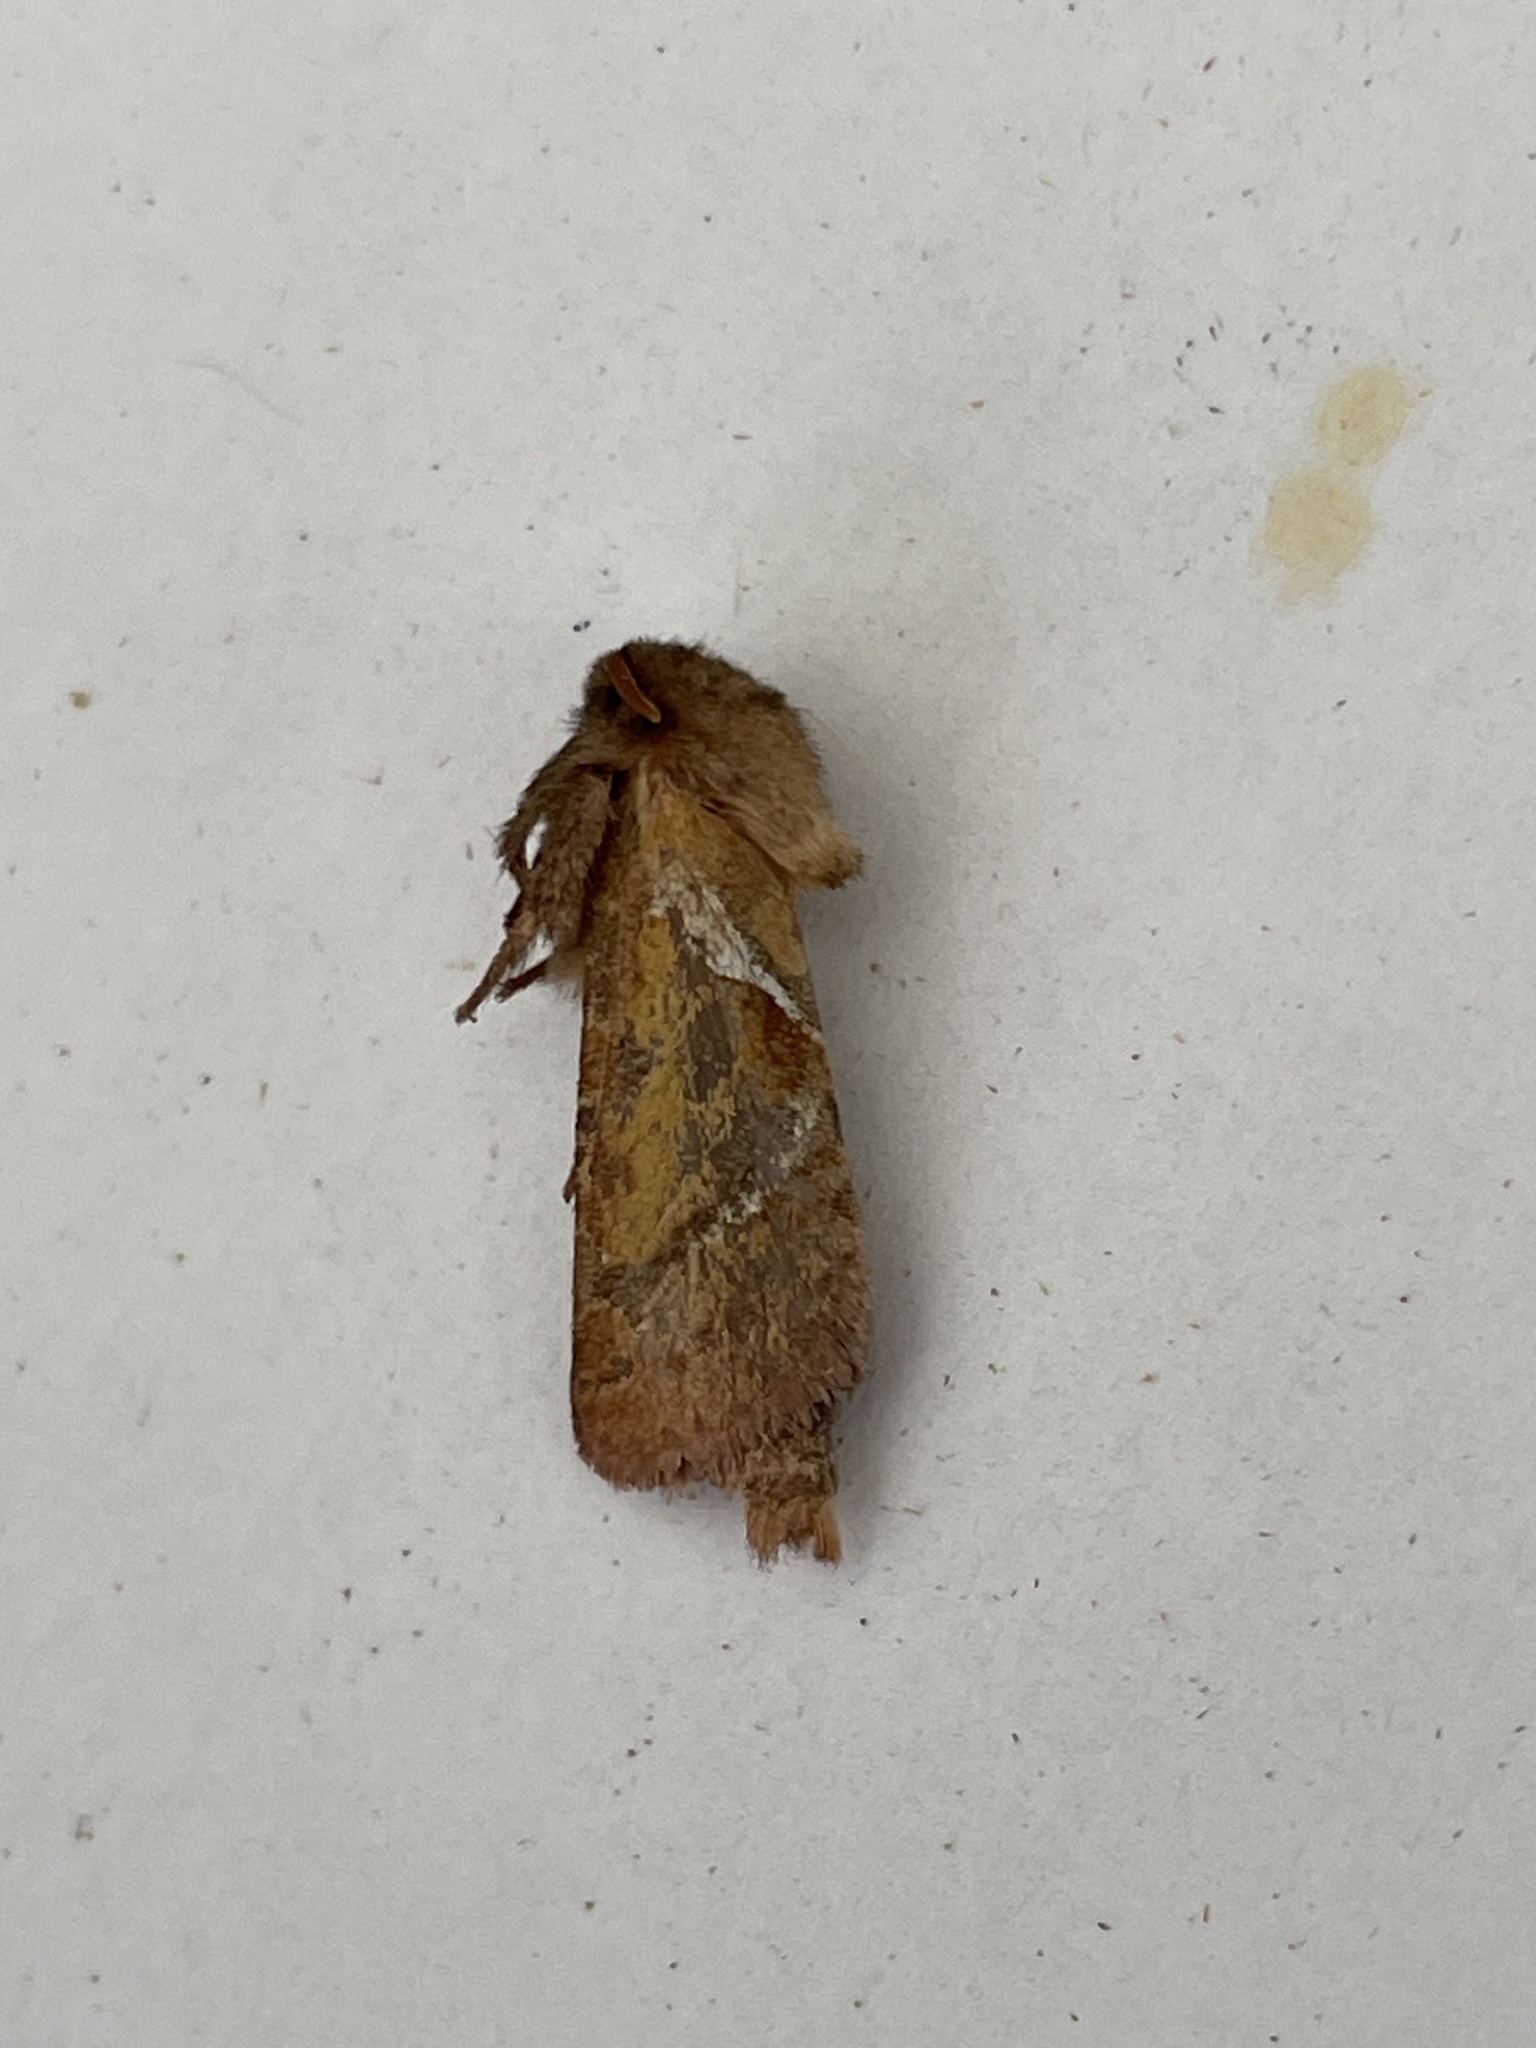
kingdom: Animalia
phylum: Arthropoda
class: Insecta
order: Lepidoptera
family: Hepialidae
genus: Triodia
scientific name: Triodia sylvina
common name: Orange swift
